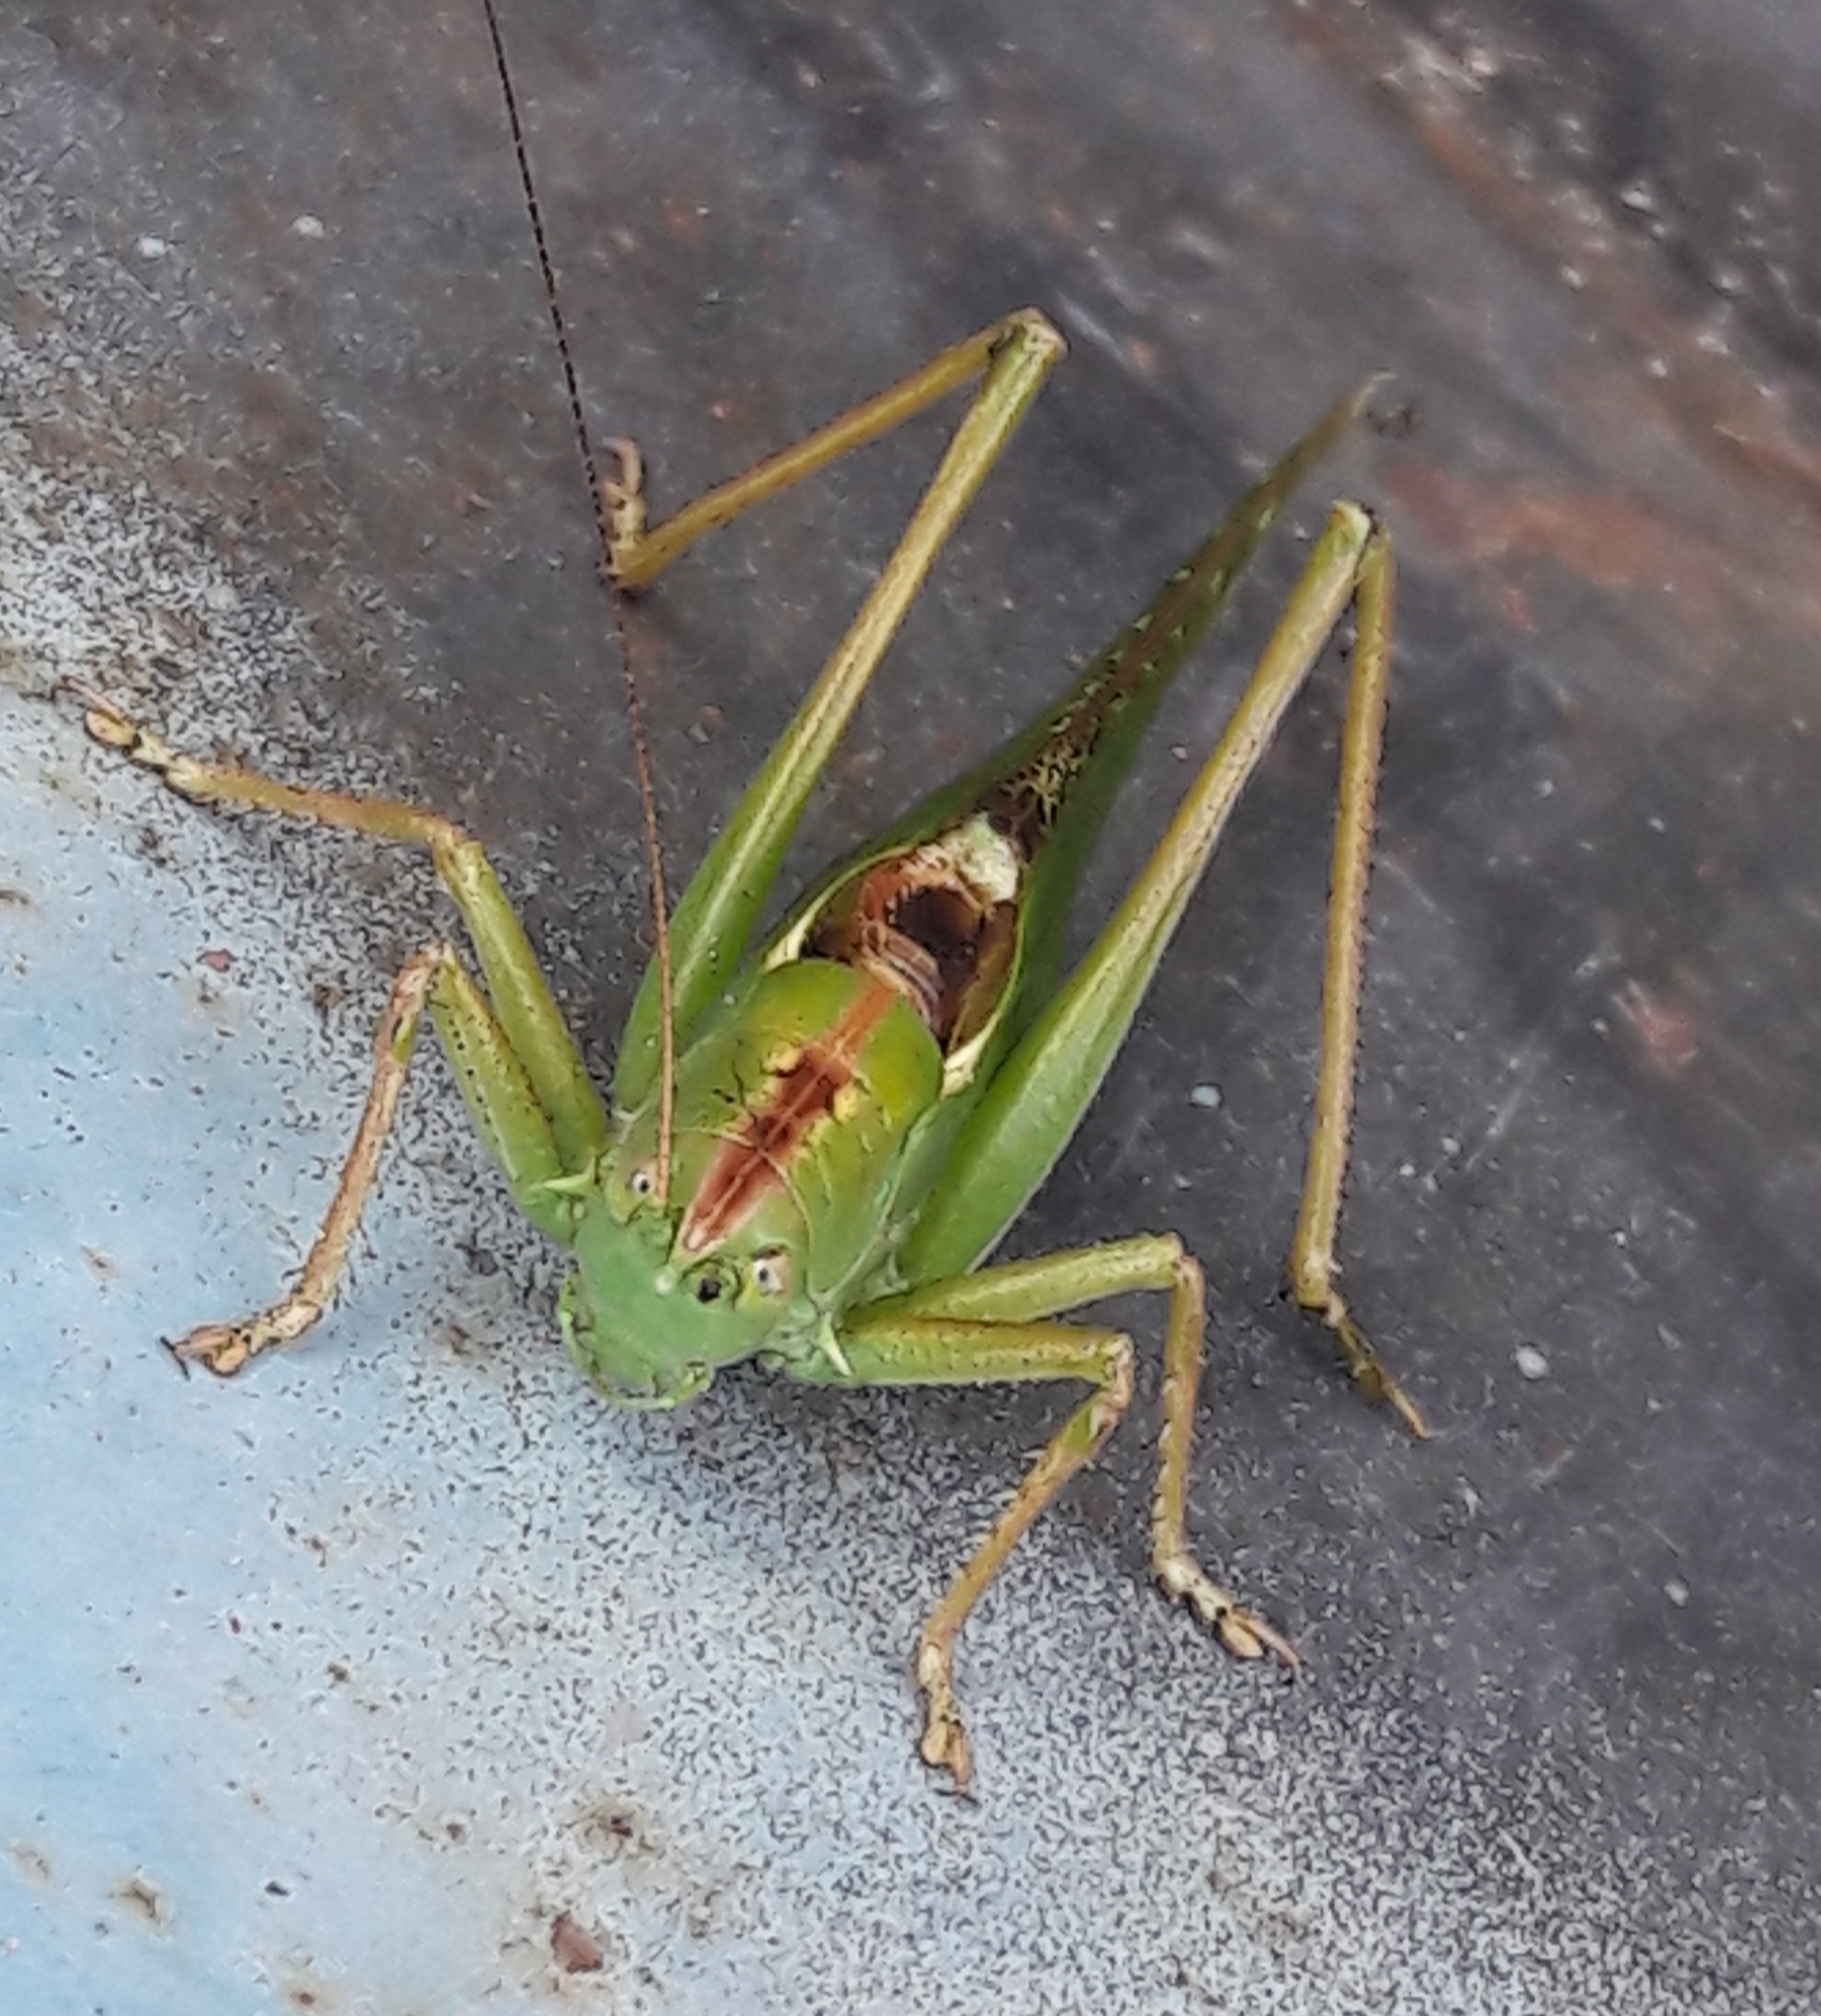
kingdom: Animalia
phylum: Arthropoda
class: Insecta
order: Orthoptera
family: Tettigoniidae
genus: Tettigonia
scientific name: Tettigonia viridissima
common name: Great green bush-cricket
